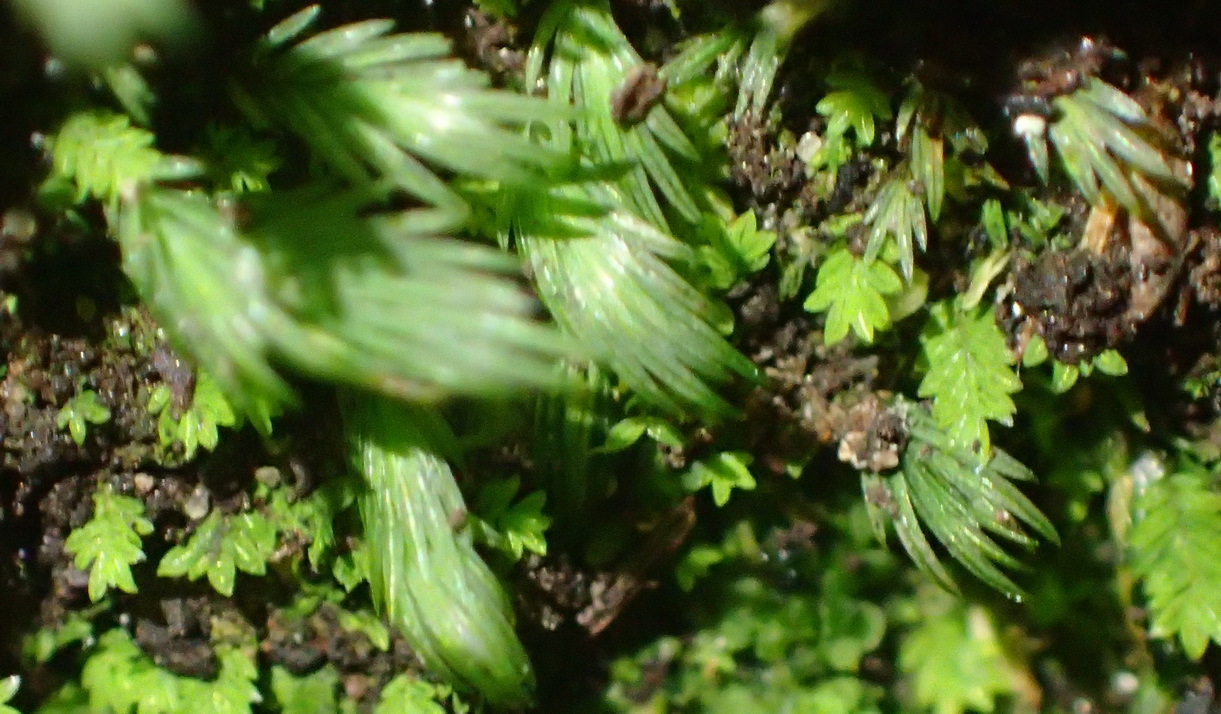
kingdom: Plantae
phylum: Bryophyta
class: Bryopsida
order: Dicranales
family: Fissidentaceae
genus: Fissidens
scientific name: Fissidens ovatus
